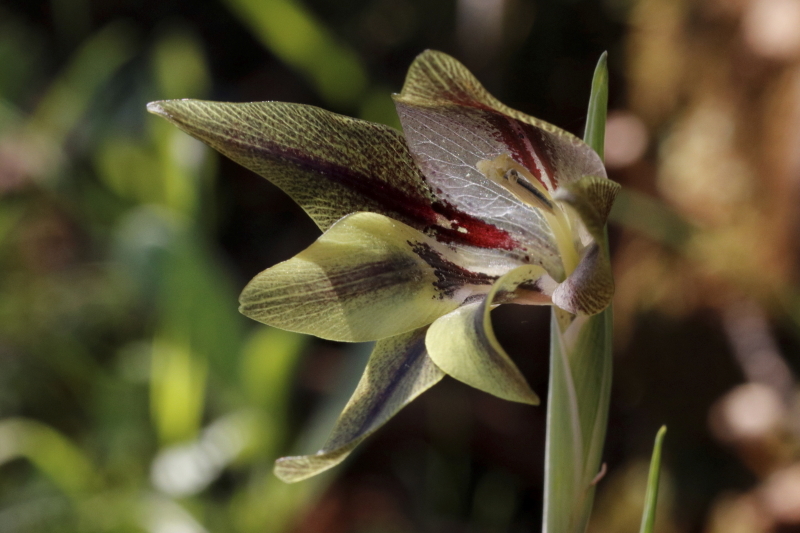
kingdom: Plantae
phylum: Tracheophyta
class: Liliopsida
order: Asparagales
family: Iridaceae
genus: Gladiolus
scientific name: Gladiolus hyalinus
